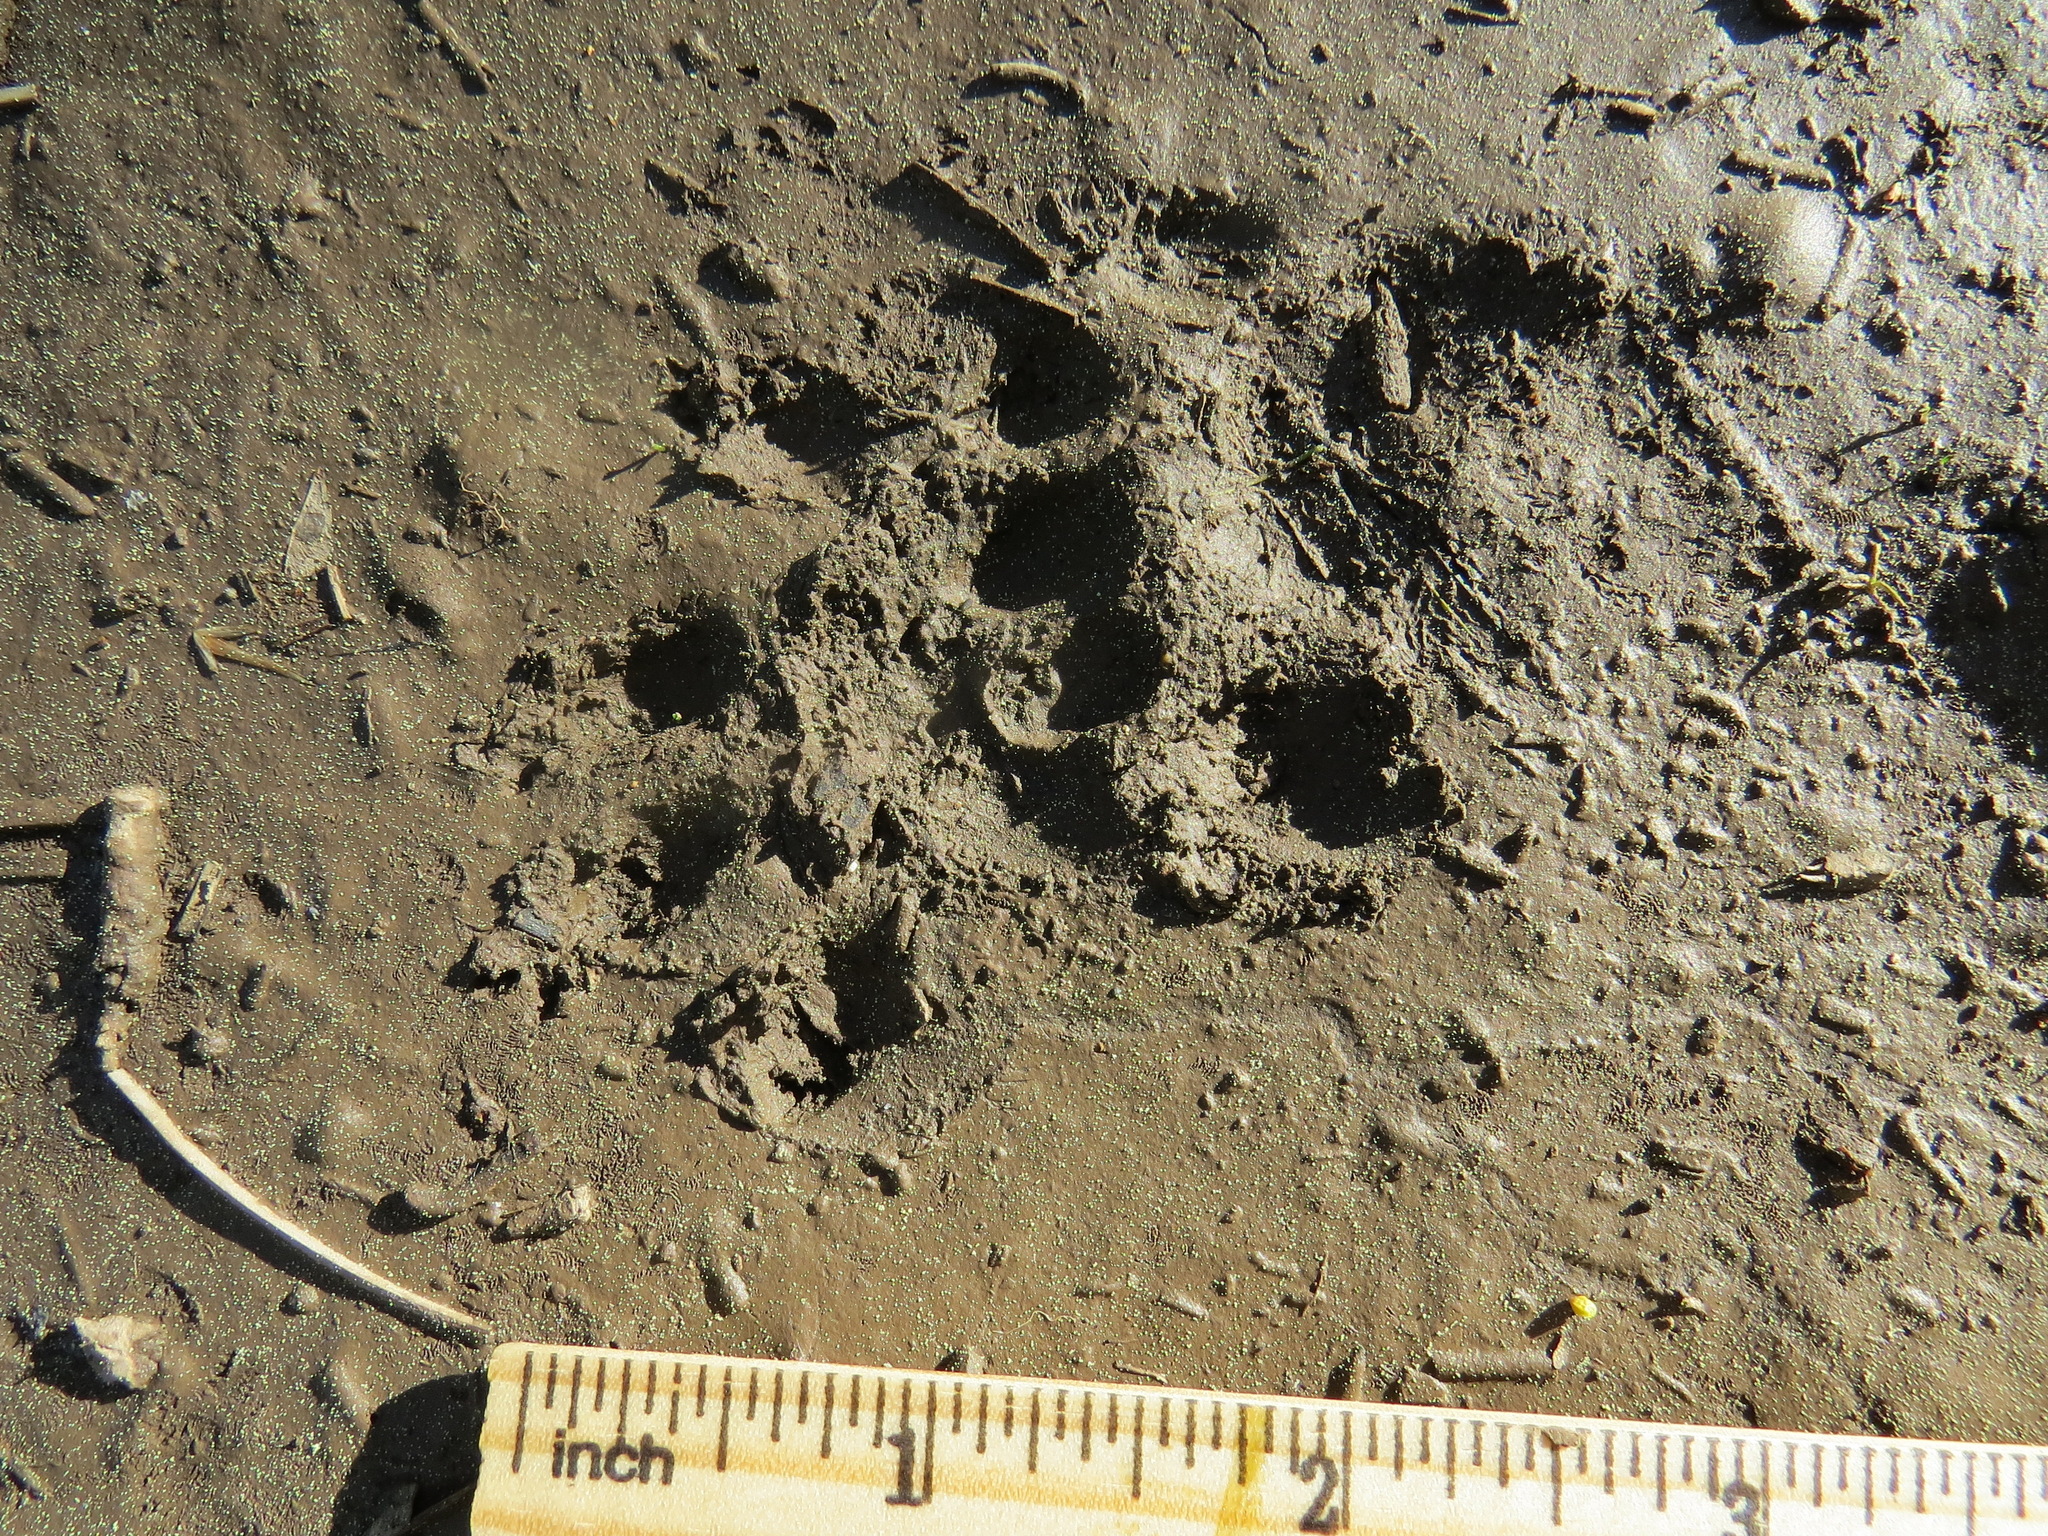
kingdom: Animalia
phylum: Chordata
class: Mammalia
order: Rodentia
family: Sciuridae
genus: Marmota
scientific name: Marmota flaviventris
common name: Yellow-bellied marmot
